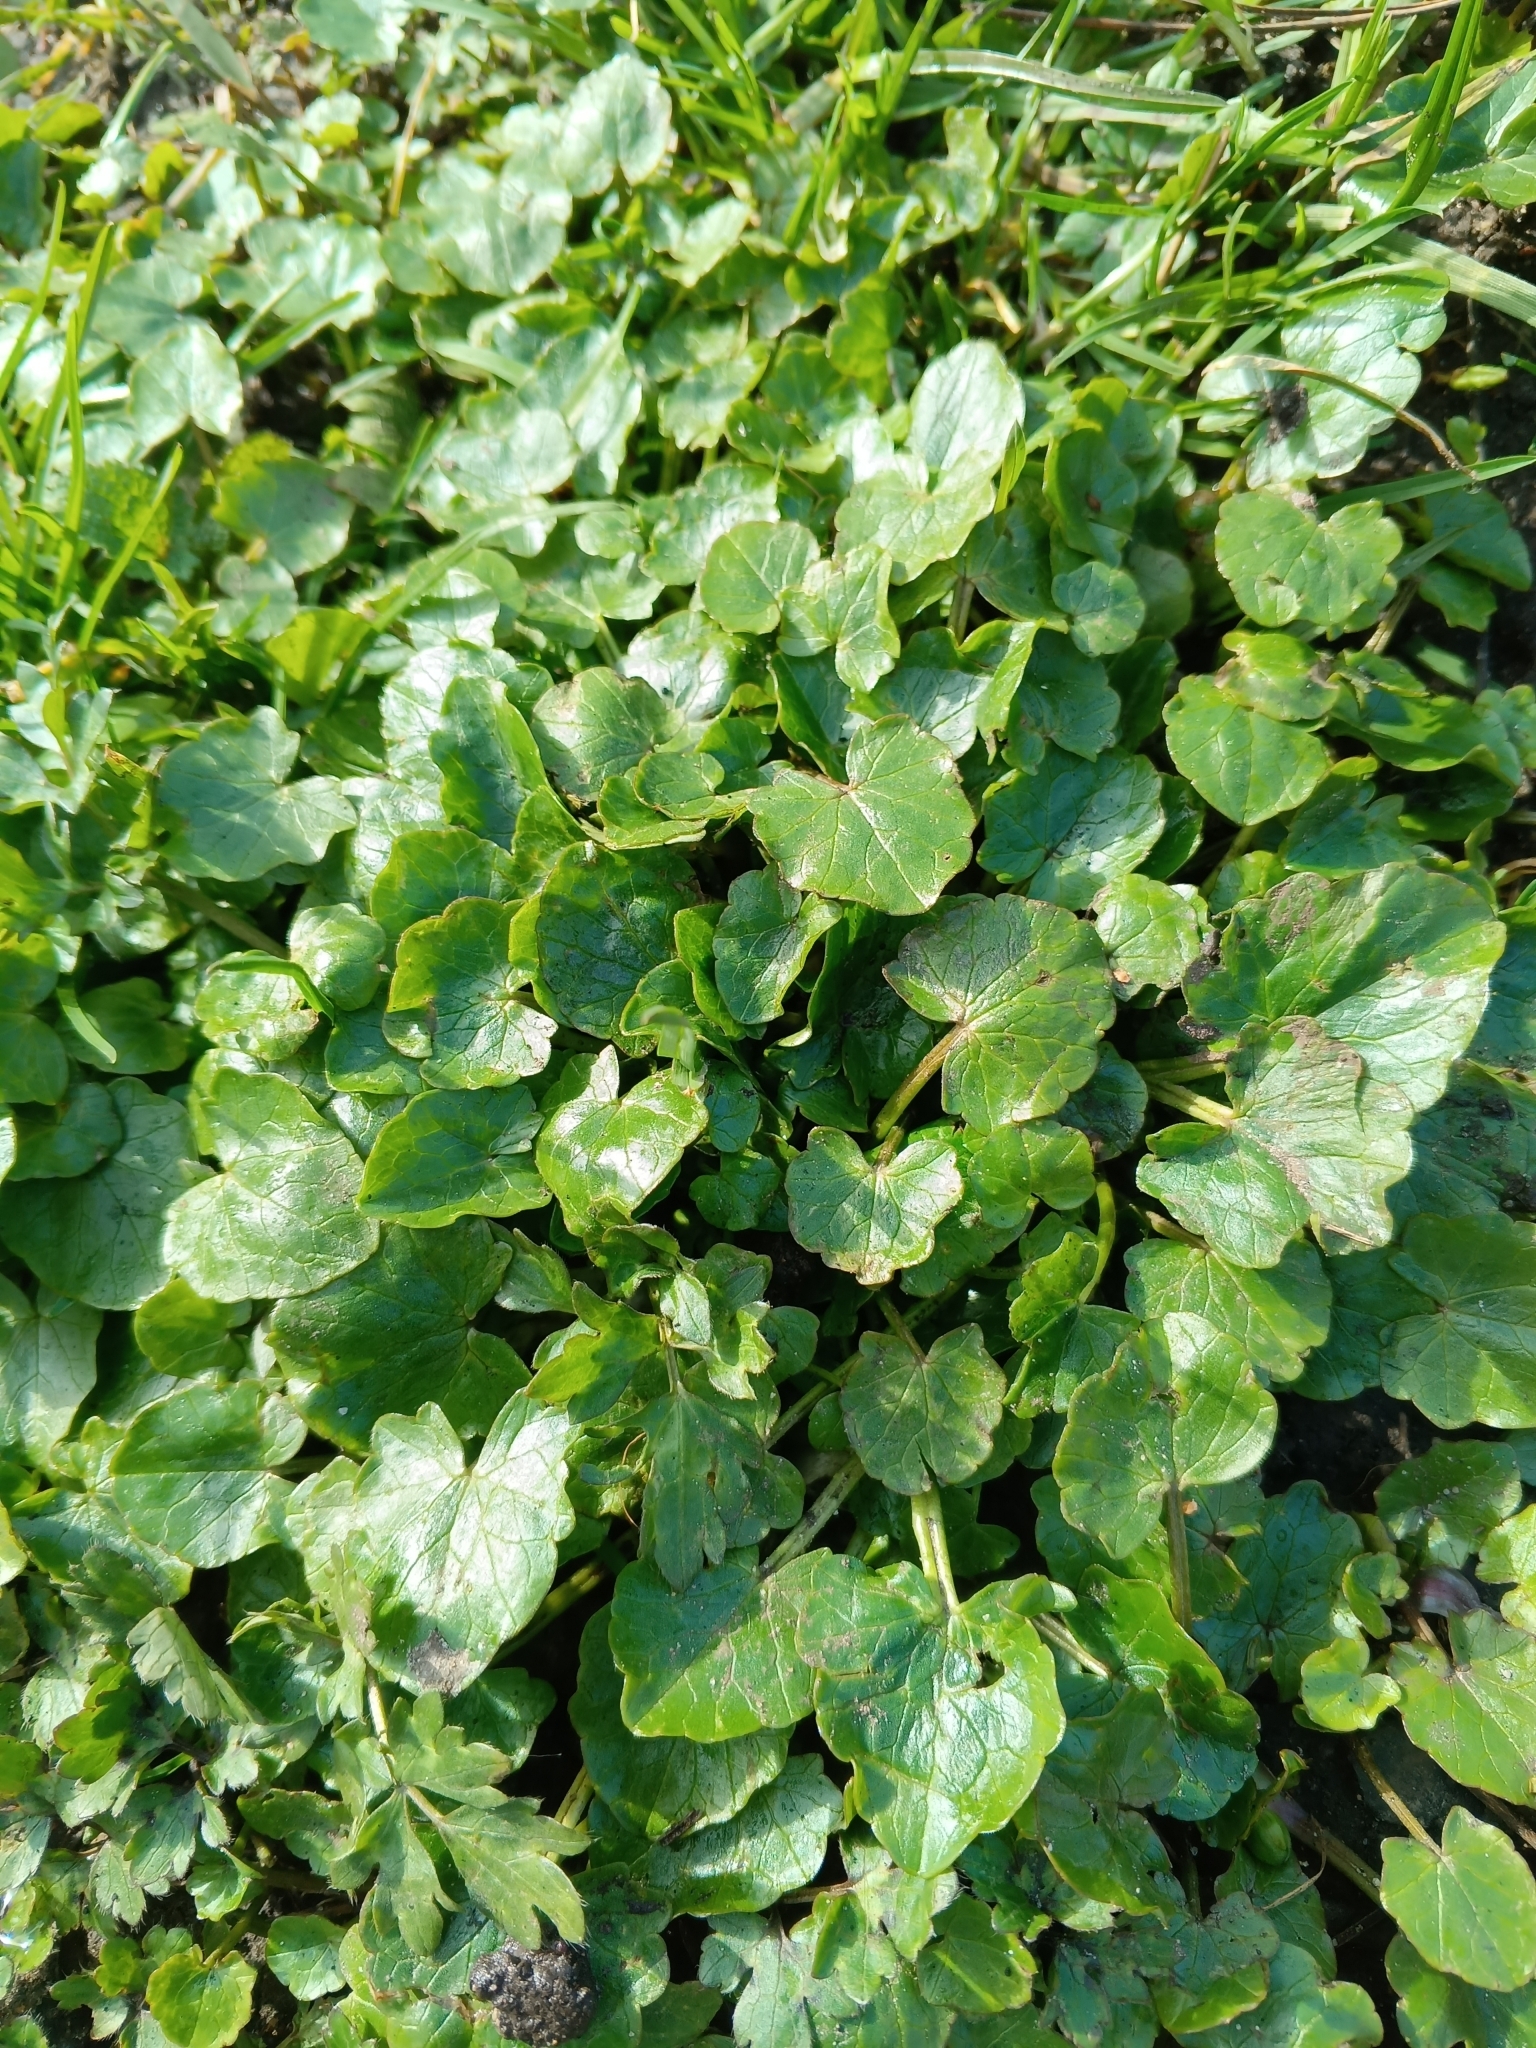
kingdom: Plantae
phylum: Tracheophyta
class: Magnoliopsida
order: Ranunculales
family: Ranunculaceae
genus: Ficaria
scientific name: Ficaria verna
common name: Lesser celandine
